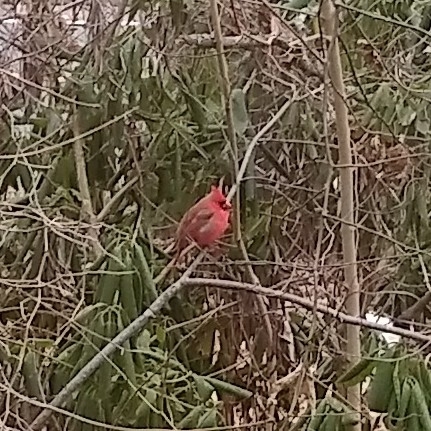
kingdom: Animalia
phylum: Chordata
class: Aves
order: Passeriformes
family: Cardinalidae
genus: Cardinalis
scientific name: Cardinalis cardinalis
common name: Northern cardinal
